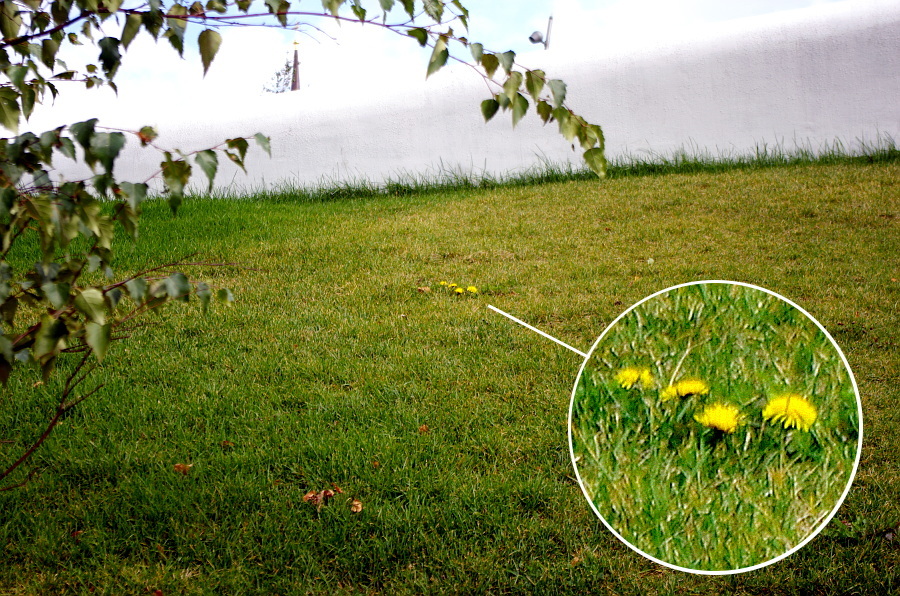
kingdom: Plantae
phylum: Tracheophyta
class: Magnoliopsida
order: Asterales
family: Asteraceae
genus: Taraxacum
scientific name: Taraxacum officinale
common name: Common dandelion
